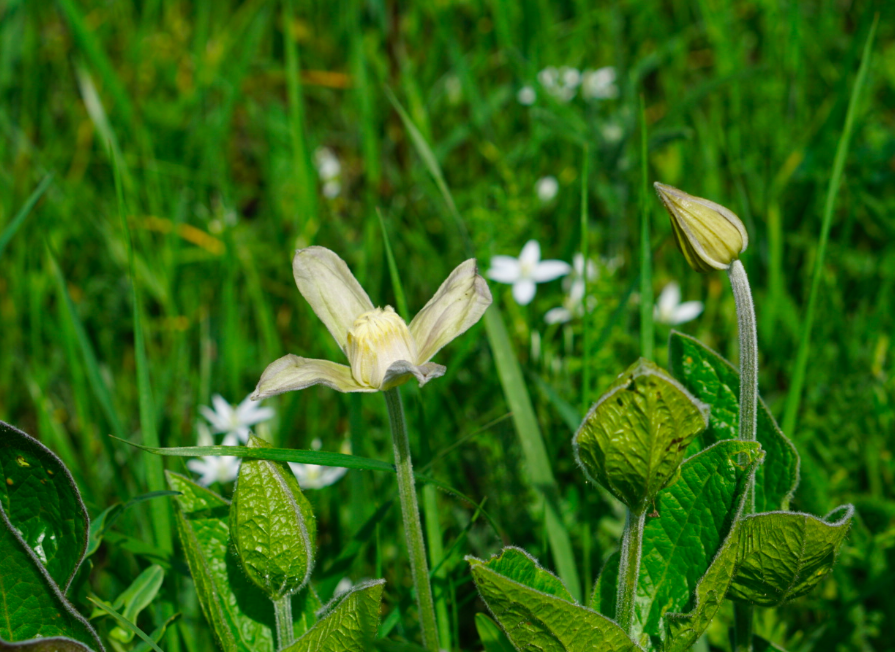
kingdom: Plantae
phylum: Tracheophyta
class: Magnoliopsida
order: Ranunculales
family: Ranunculaceae
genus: Clematis
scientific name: Clematis integrifolia
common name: Solitary clematis
